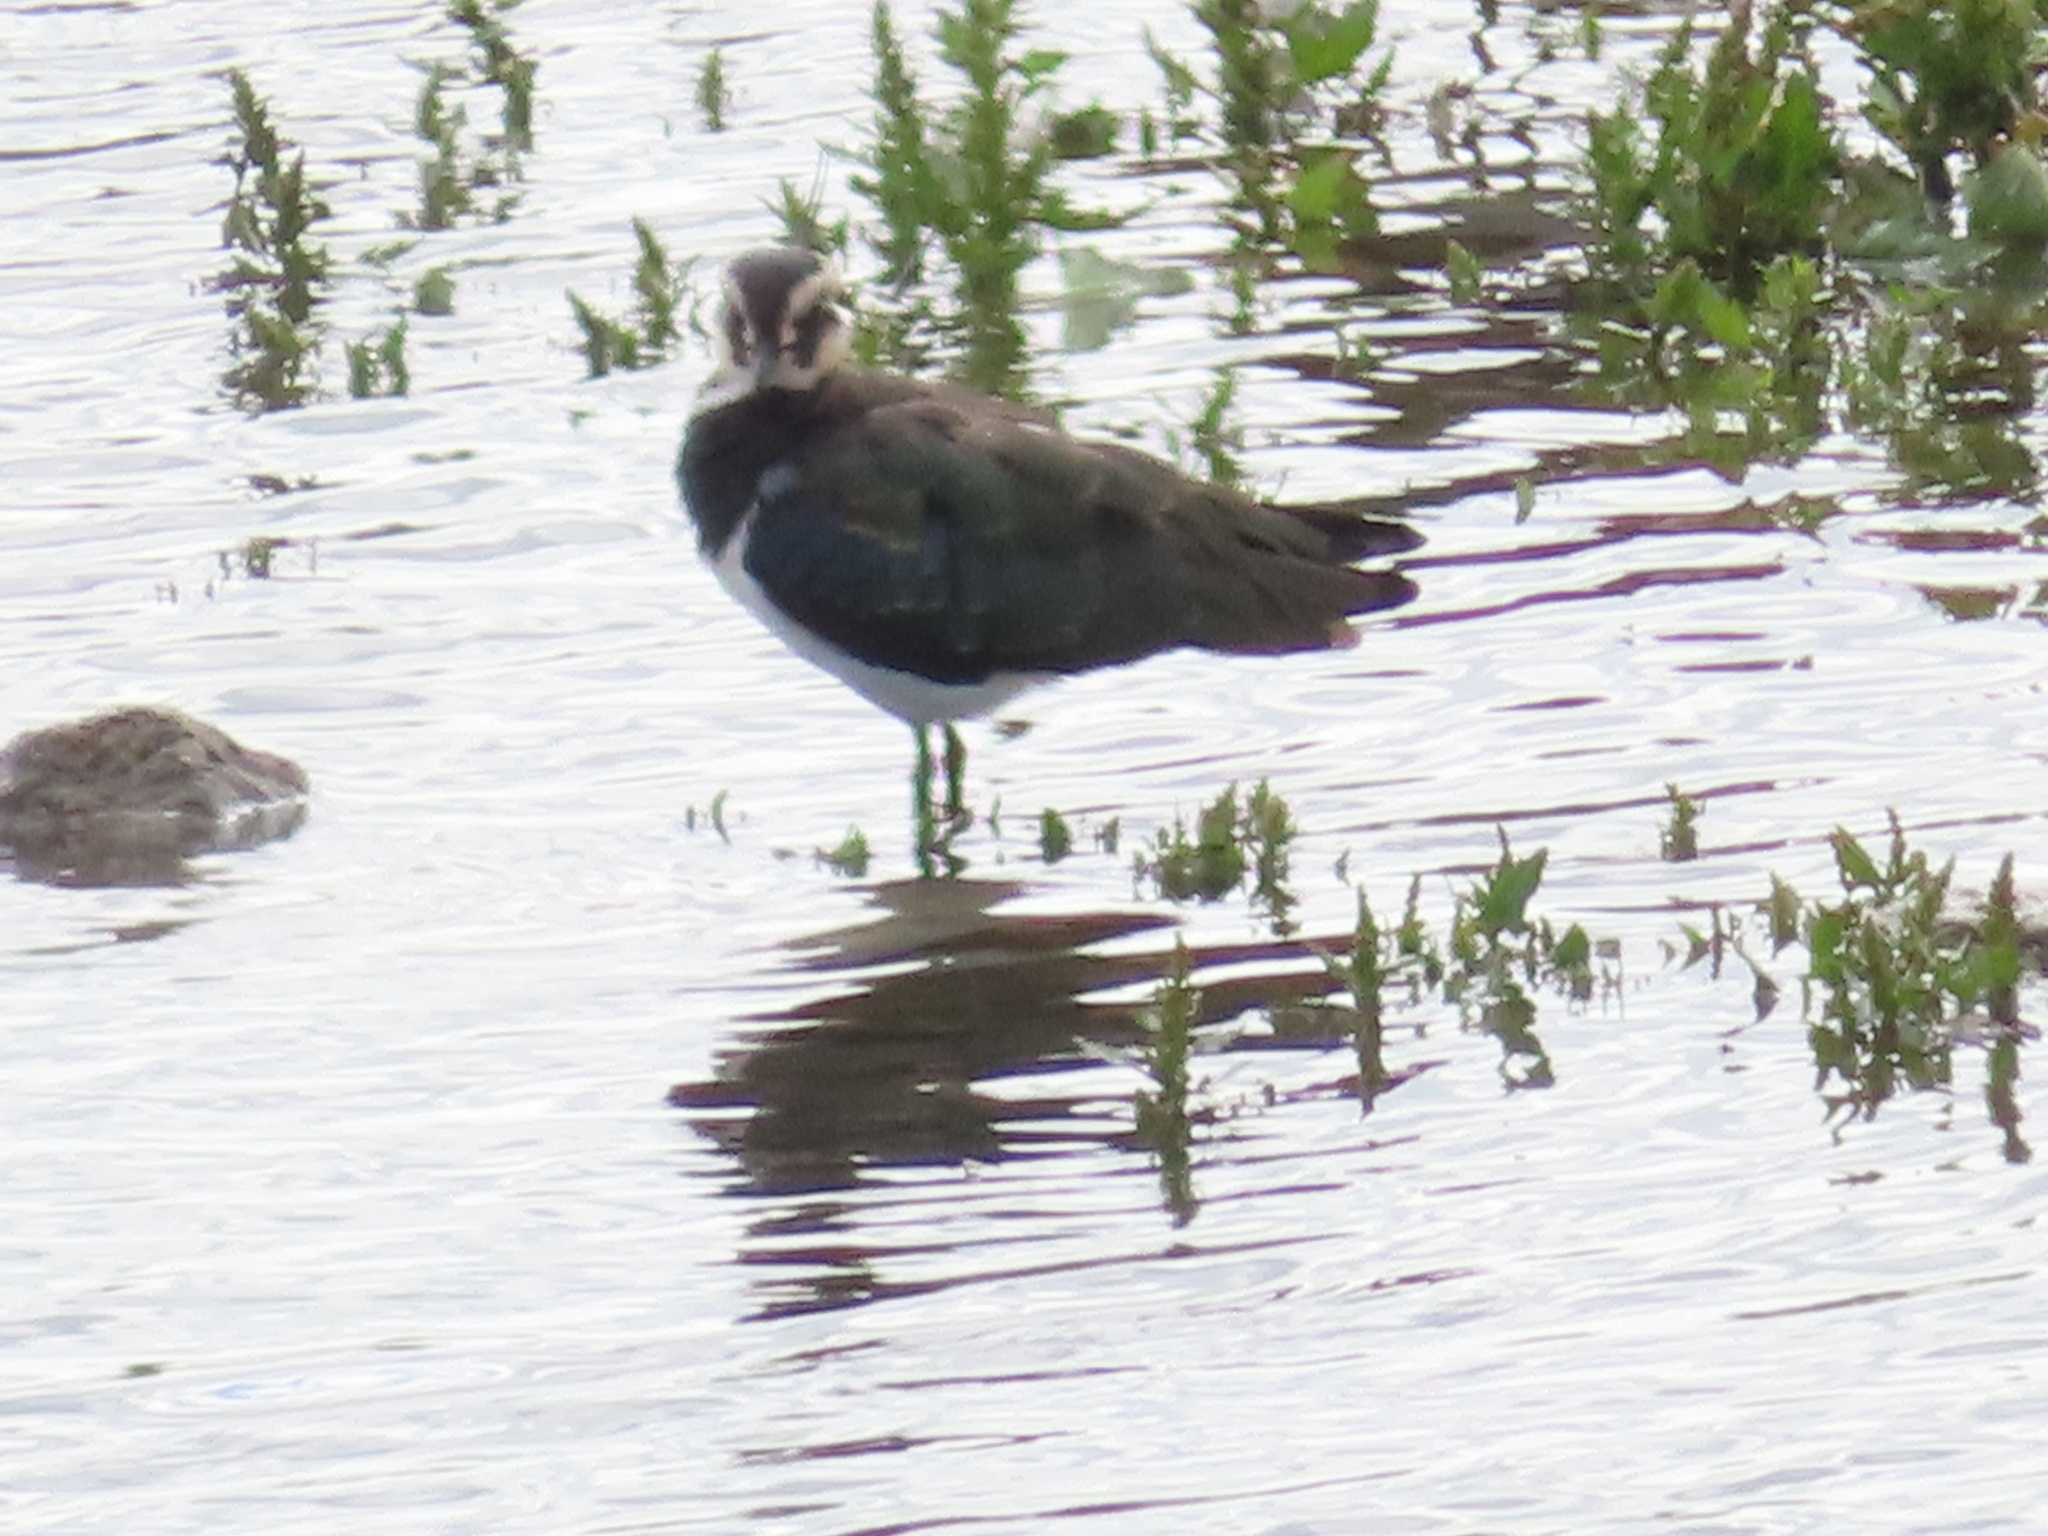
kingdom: Animalia
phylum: Chordata
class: Aves
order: Charadriiformes
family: Charadriidae
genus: Vanellus
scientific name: Vanellus vanellus
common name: Northern lapwing
